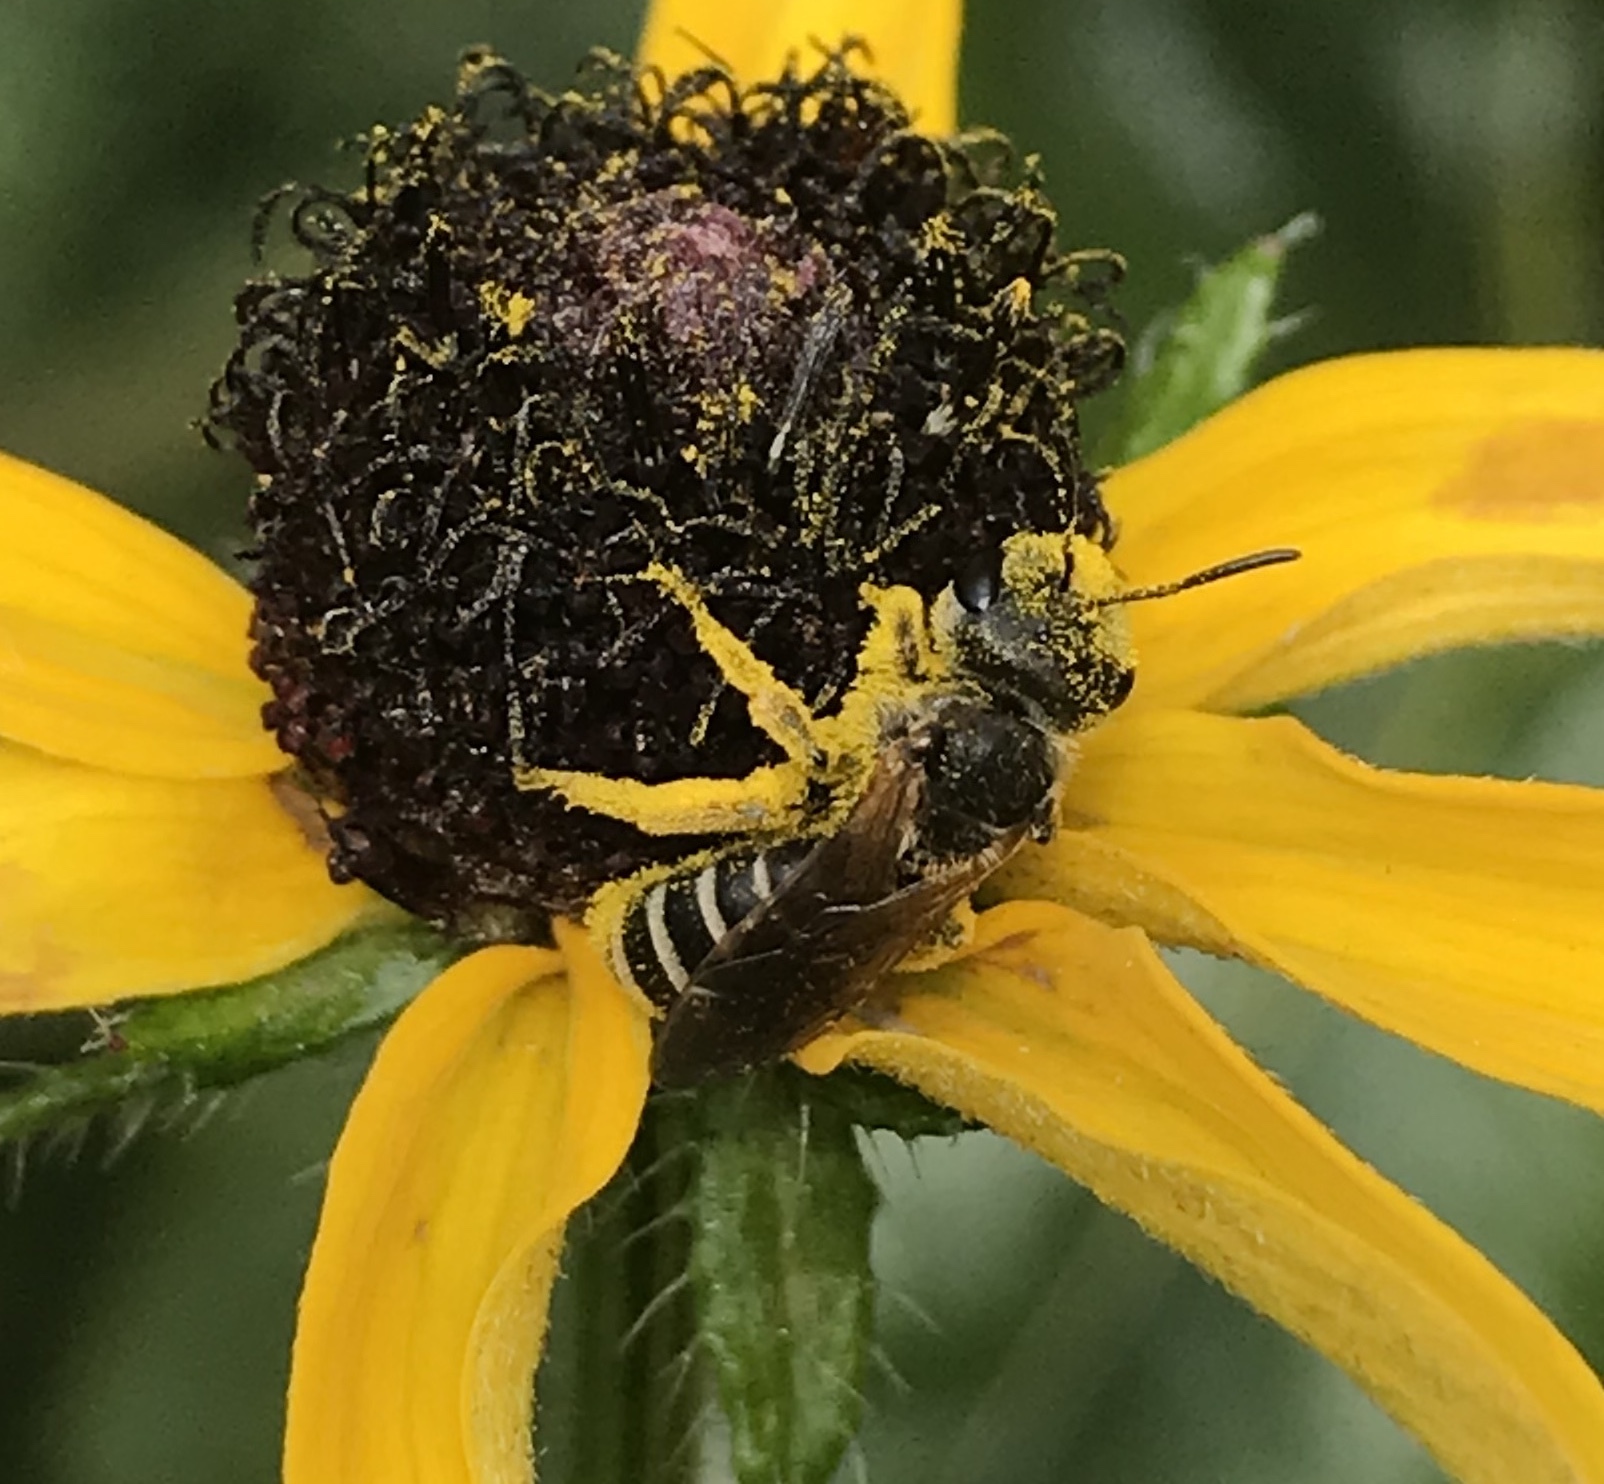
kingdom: Animalia
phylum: Arthropoda
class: Insecta
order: Hymenoptera
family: Halictidae
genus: Halictus
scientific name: Halictus ligatus
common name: Ligated furrow bee
